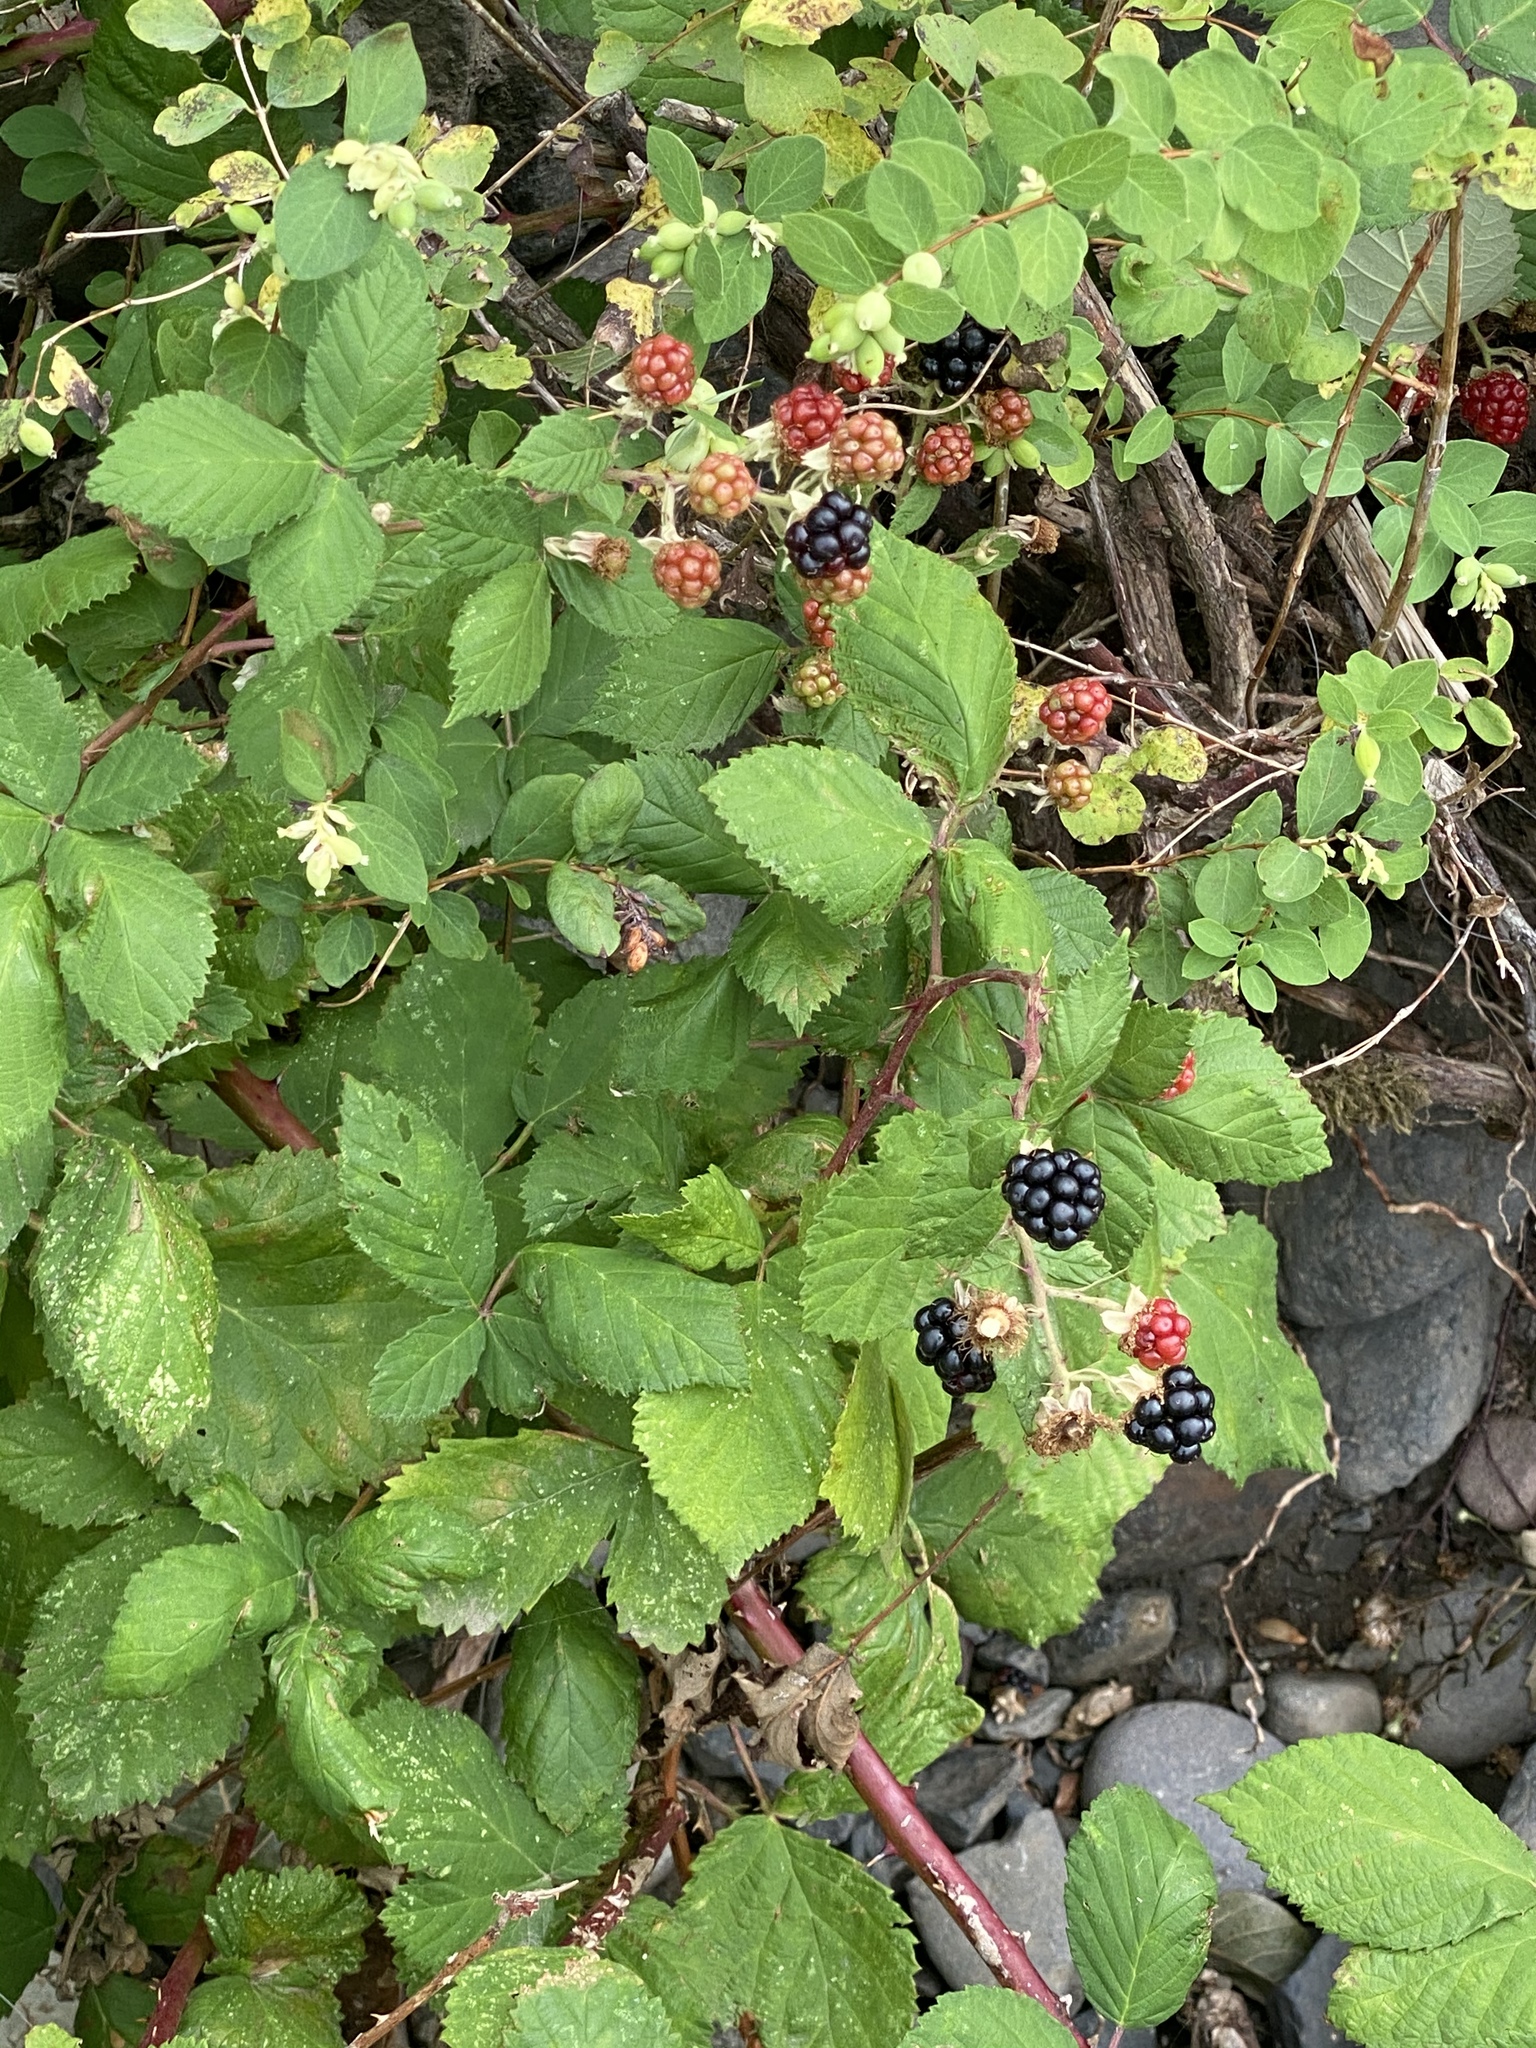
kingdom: Plantae
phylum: Tracheophyta
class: Magnoliopsida
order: Rosales
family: Rosaceae
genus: Rubus
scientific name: Rubus bifrons
